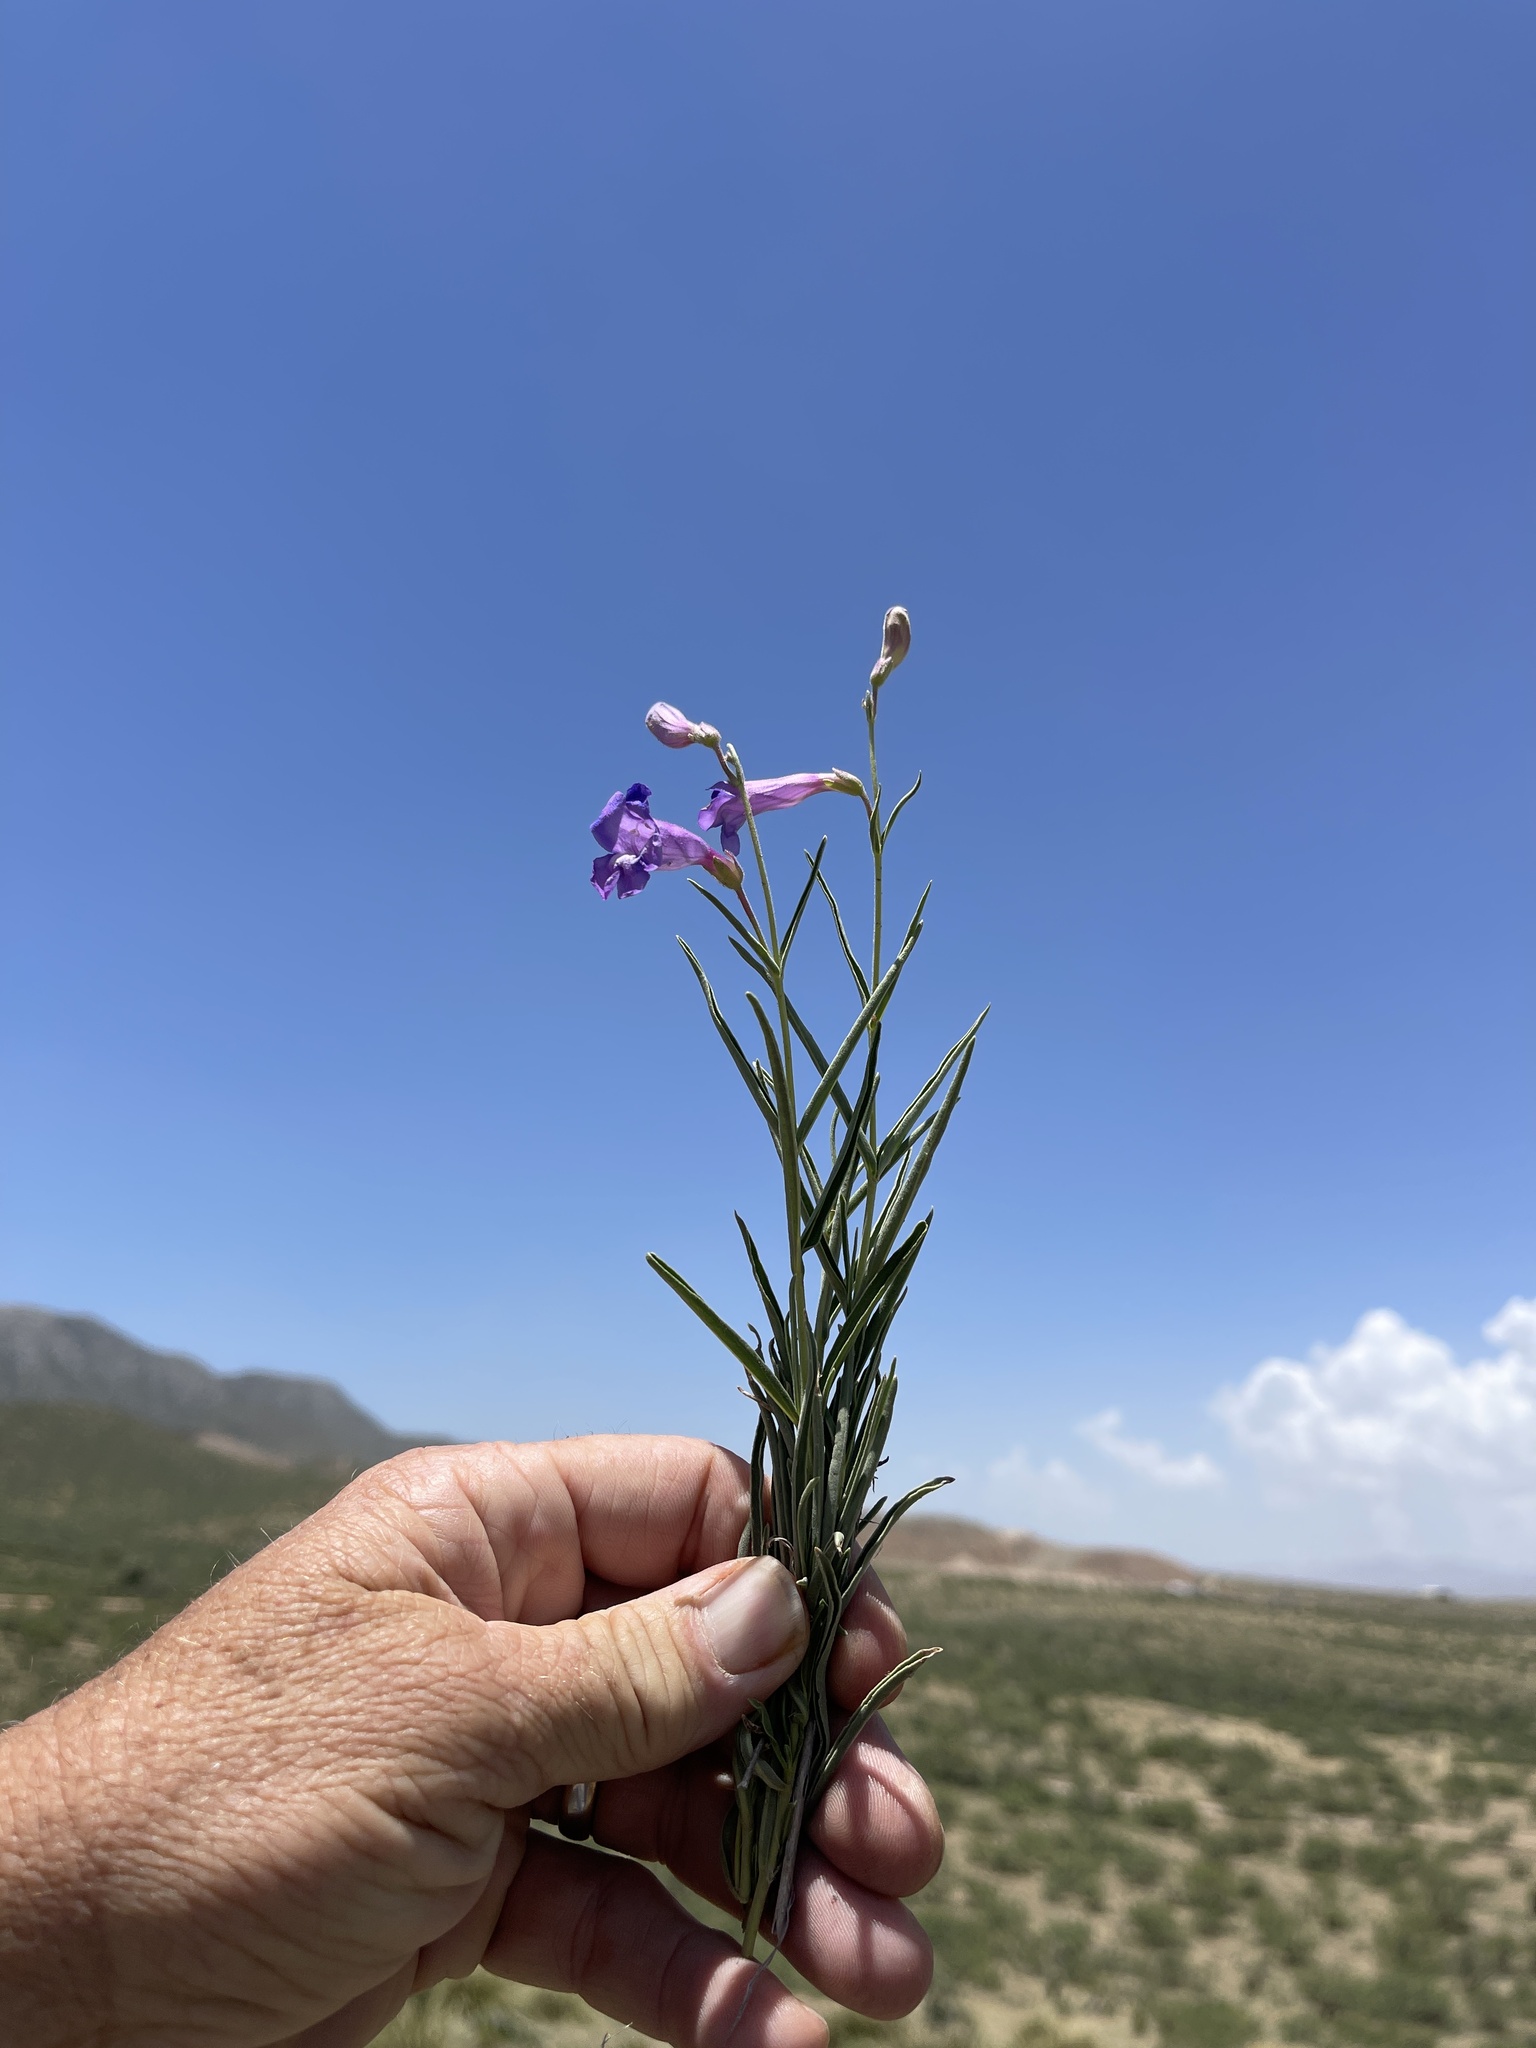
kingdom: Plantae
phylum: Tracheophyta
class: Magnoliopsida
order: Lamiales
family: Plantaginaceae
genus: Penstemon
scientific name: Penstemon dasyphyllus
